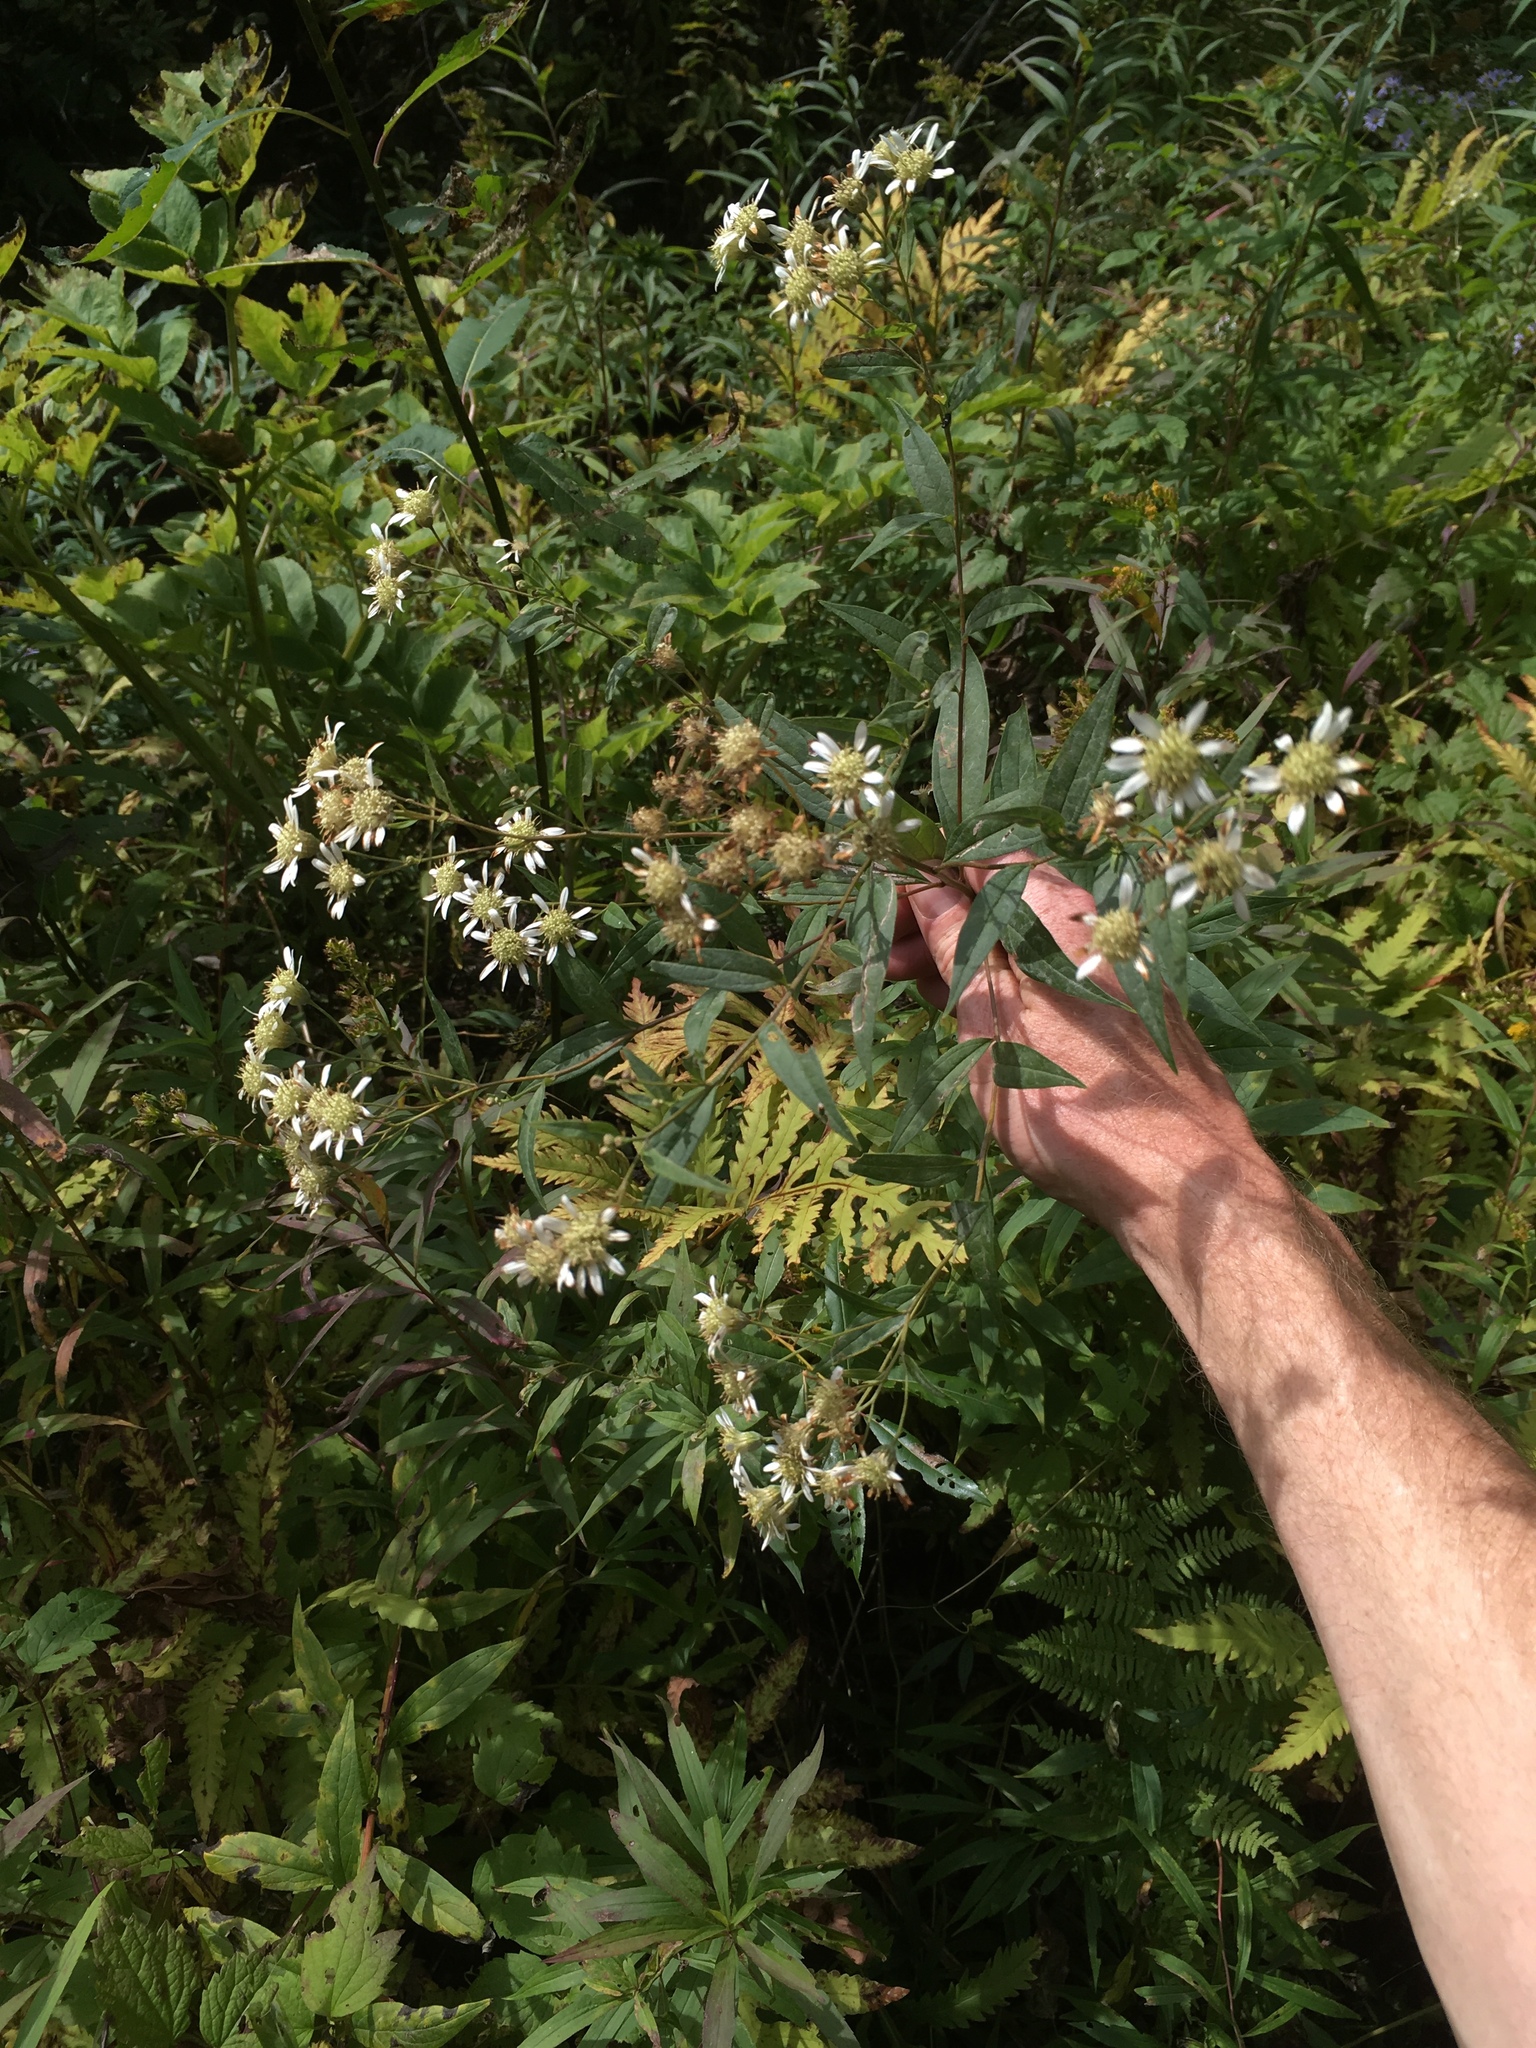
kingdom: Plantae
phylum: Tracheophyta
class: Magnoliopsida
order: Asterales
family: Asteraceae
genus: Doellingeria
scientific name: Doellingeria umbellata
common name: Flat-top white aster
